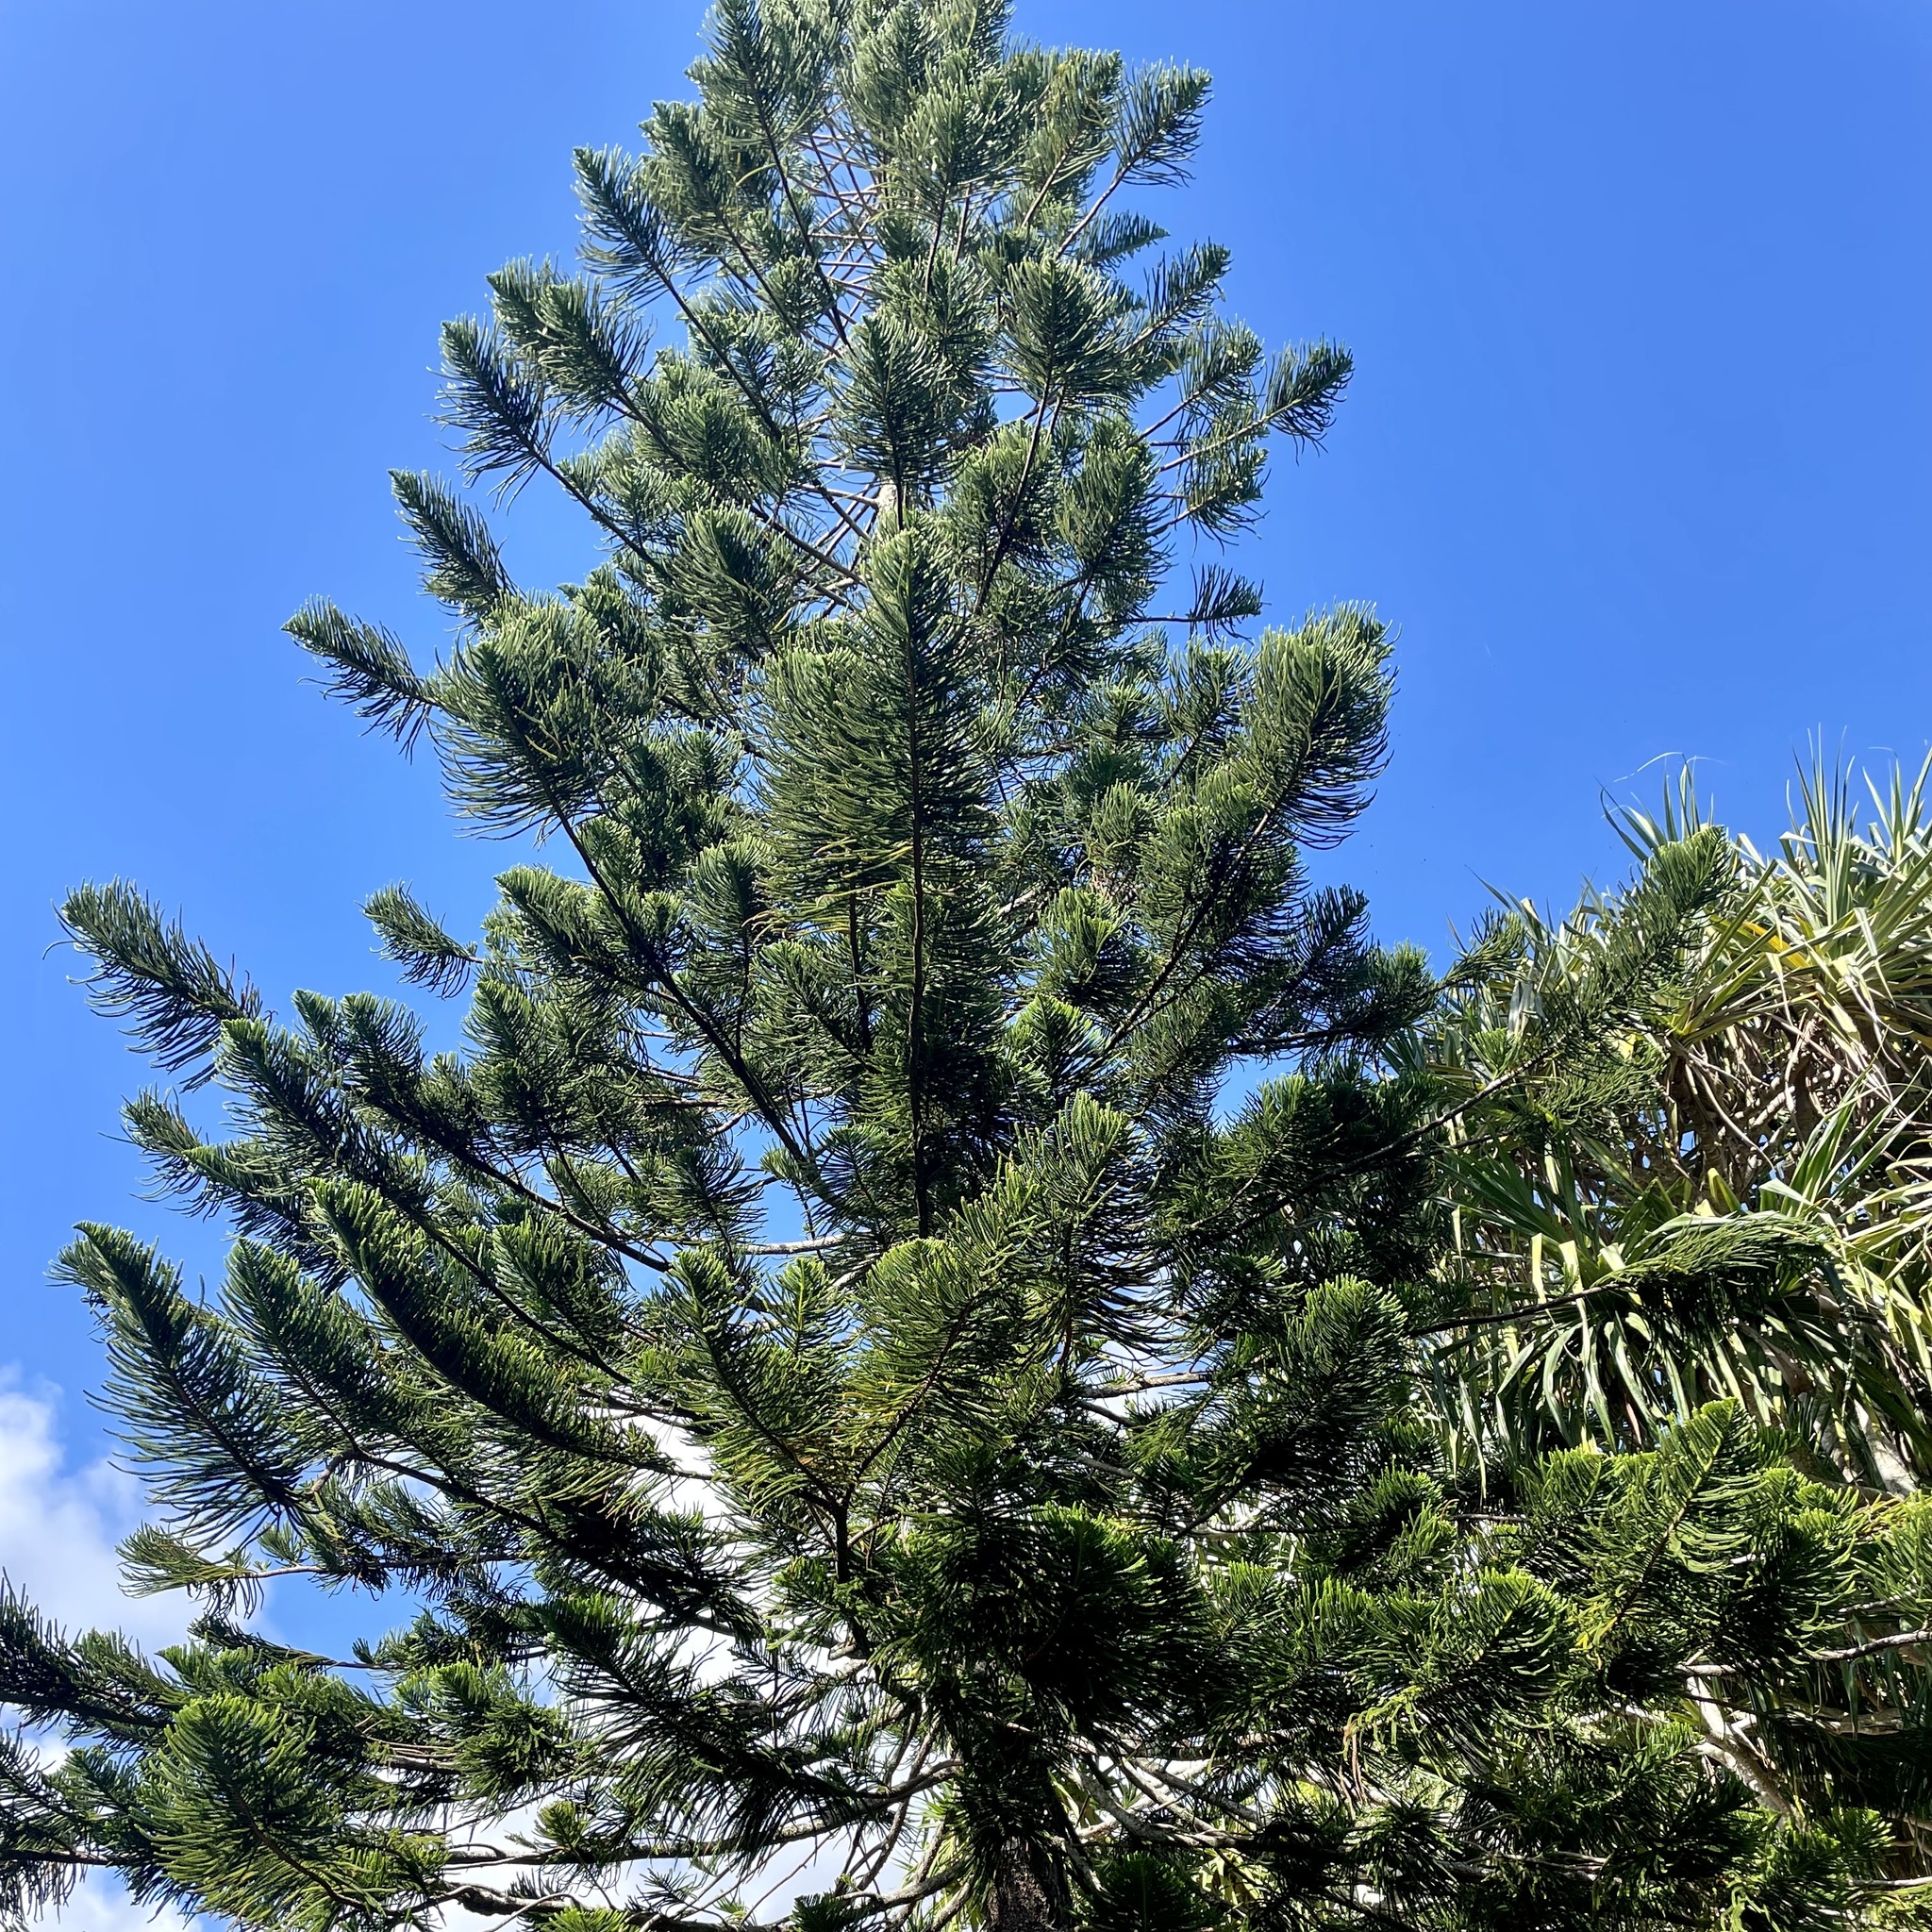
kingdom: Plantae
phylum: Tracheophyta
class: Pinopsida
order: Pinales
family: Araucariaceae
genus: Araucaria
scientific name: Araucaria columnaris
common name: Coral reef araucaria
